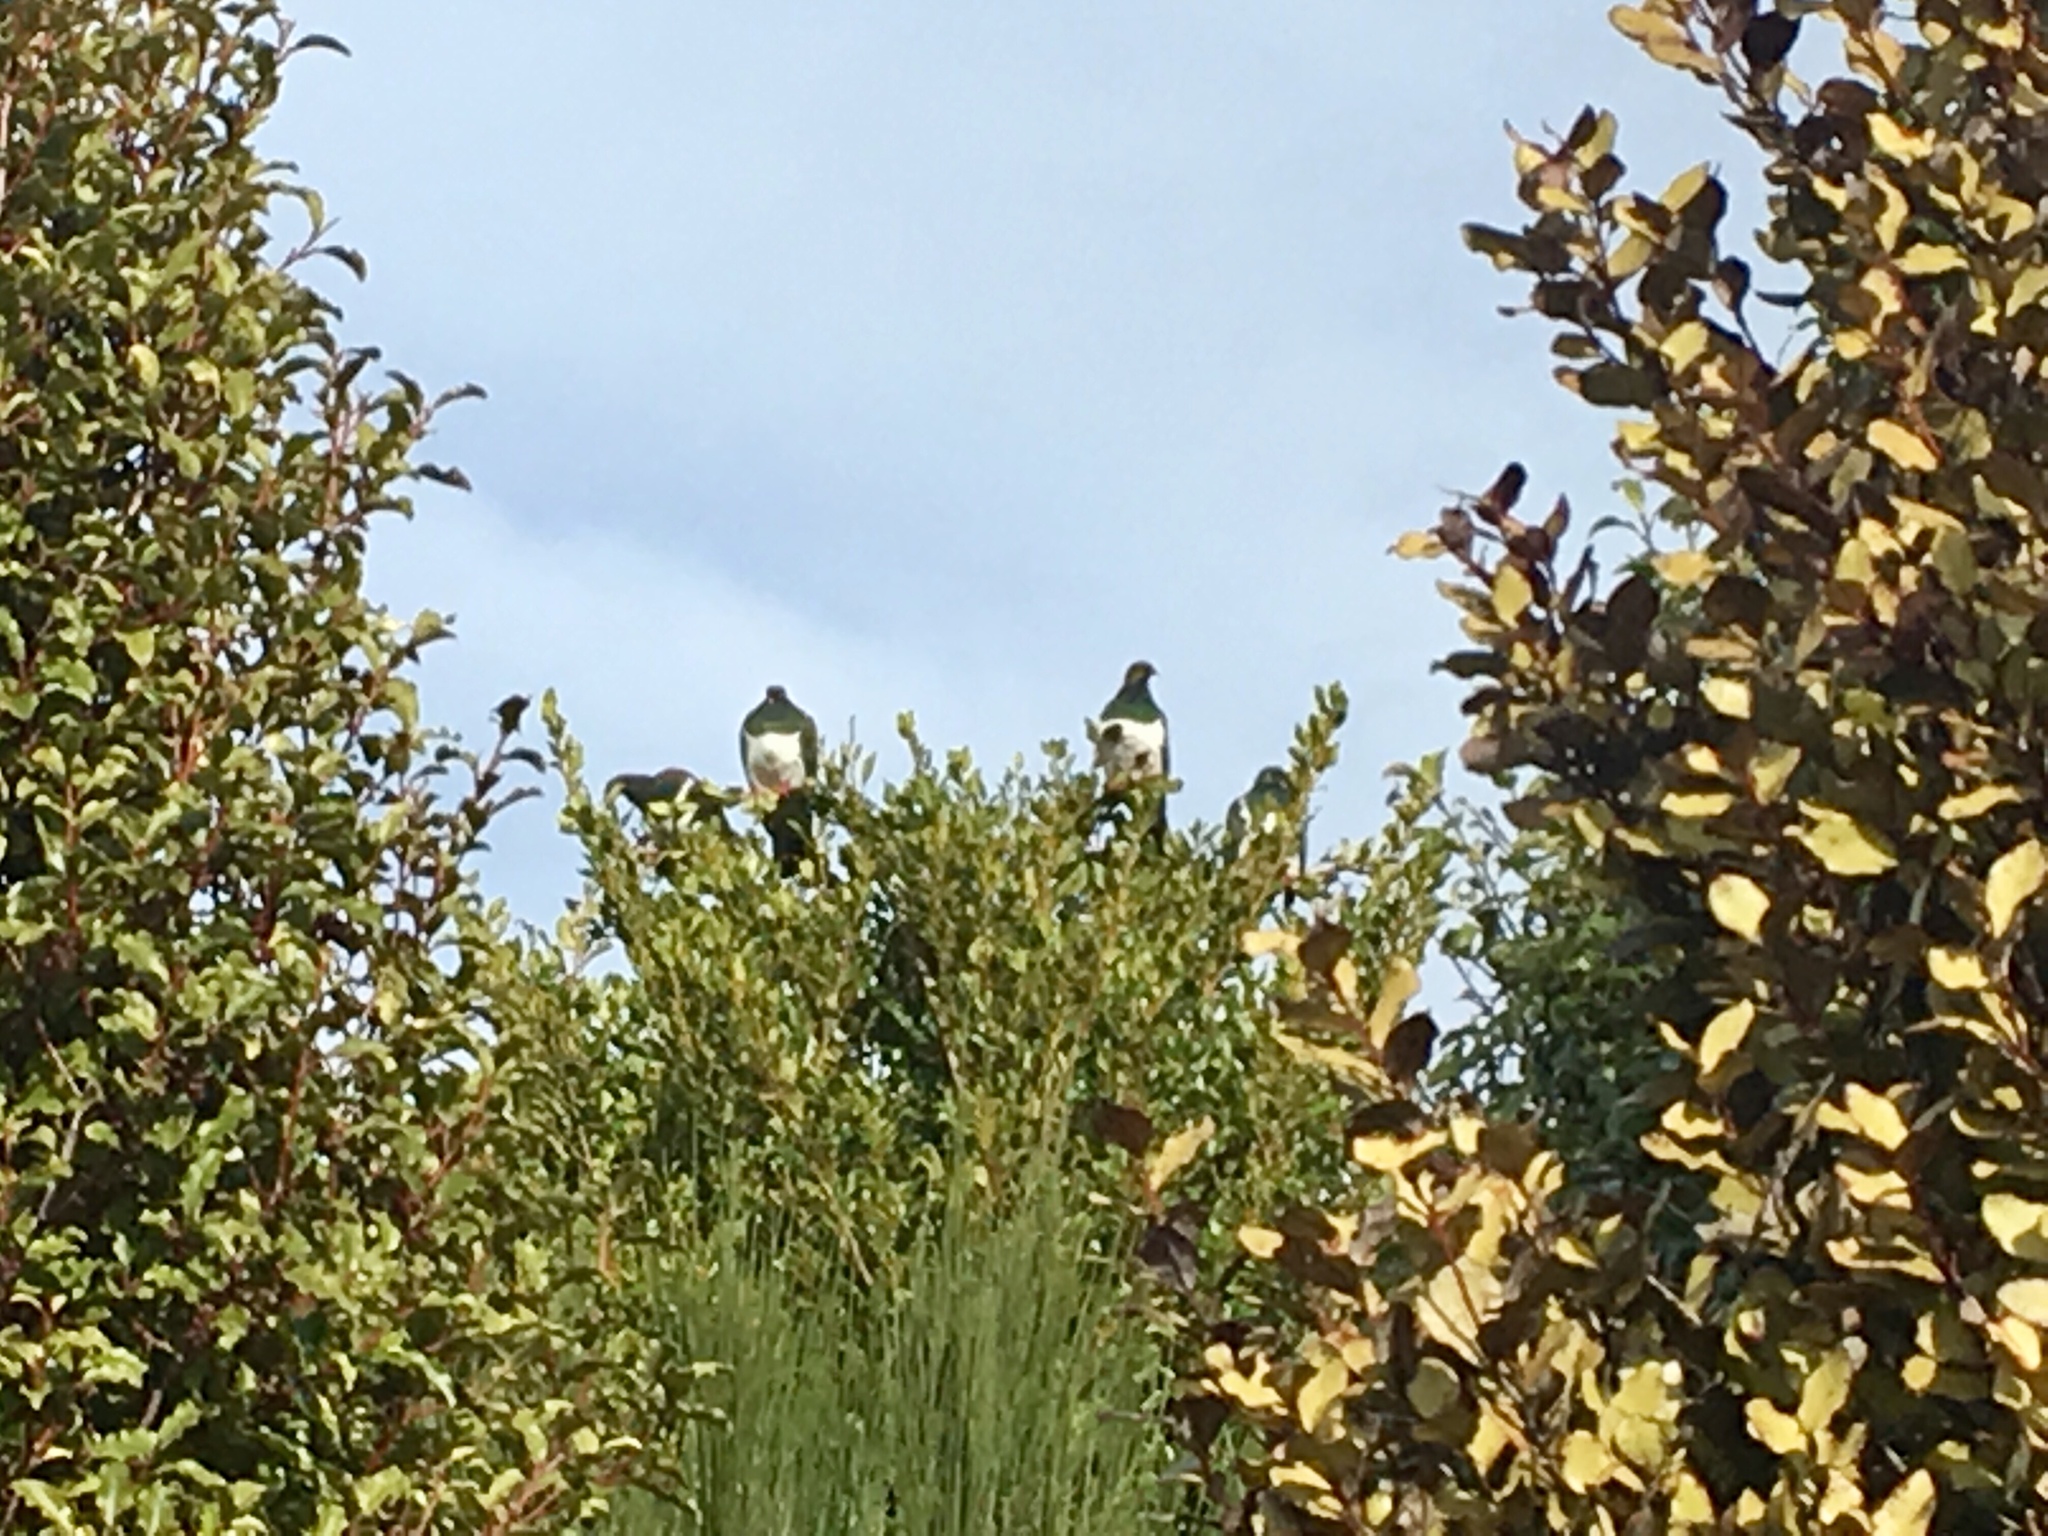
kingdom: Animalia
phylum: Chordata
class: Aves
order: Columbiformes
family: Columbidae
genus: Hemiphaga
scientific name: Hemiphaga novaeseelandiae
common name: New zealand pigeon
